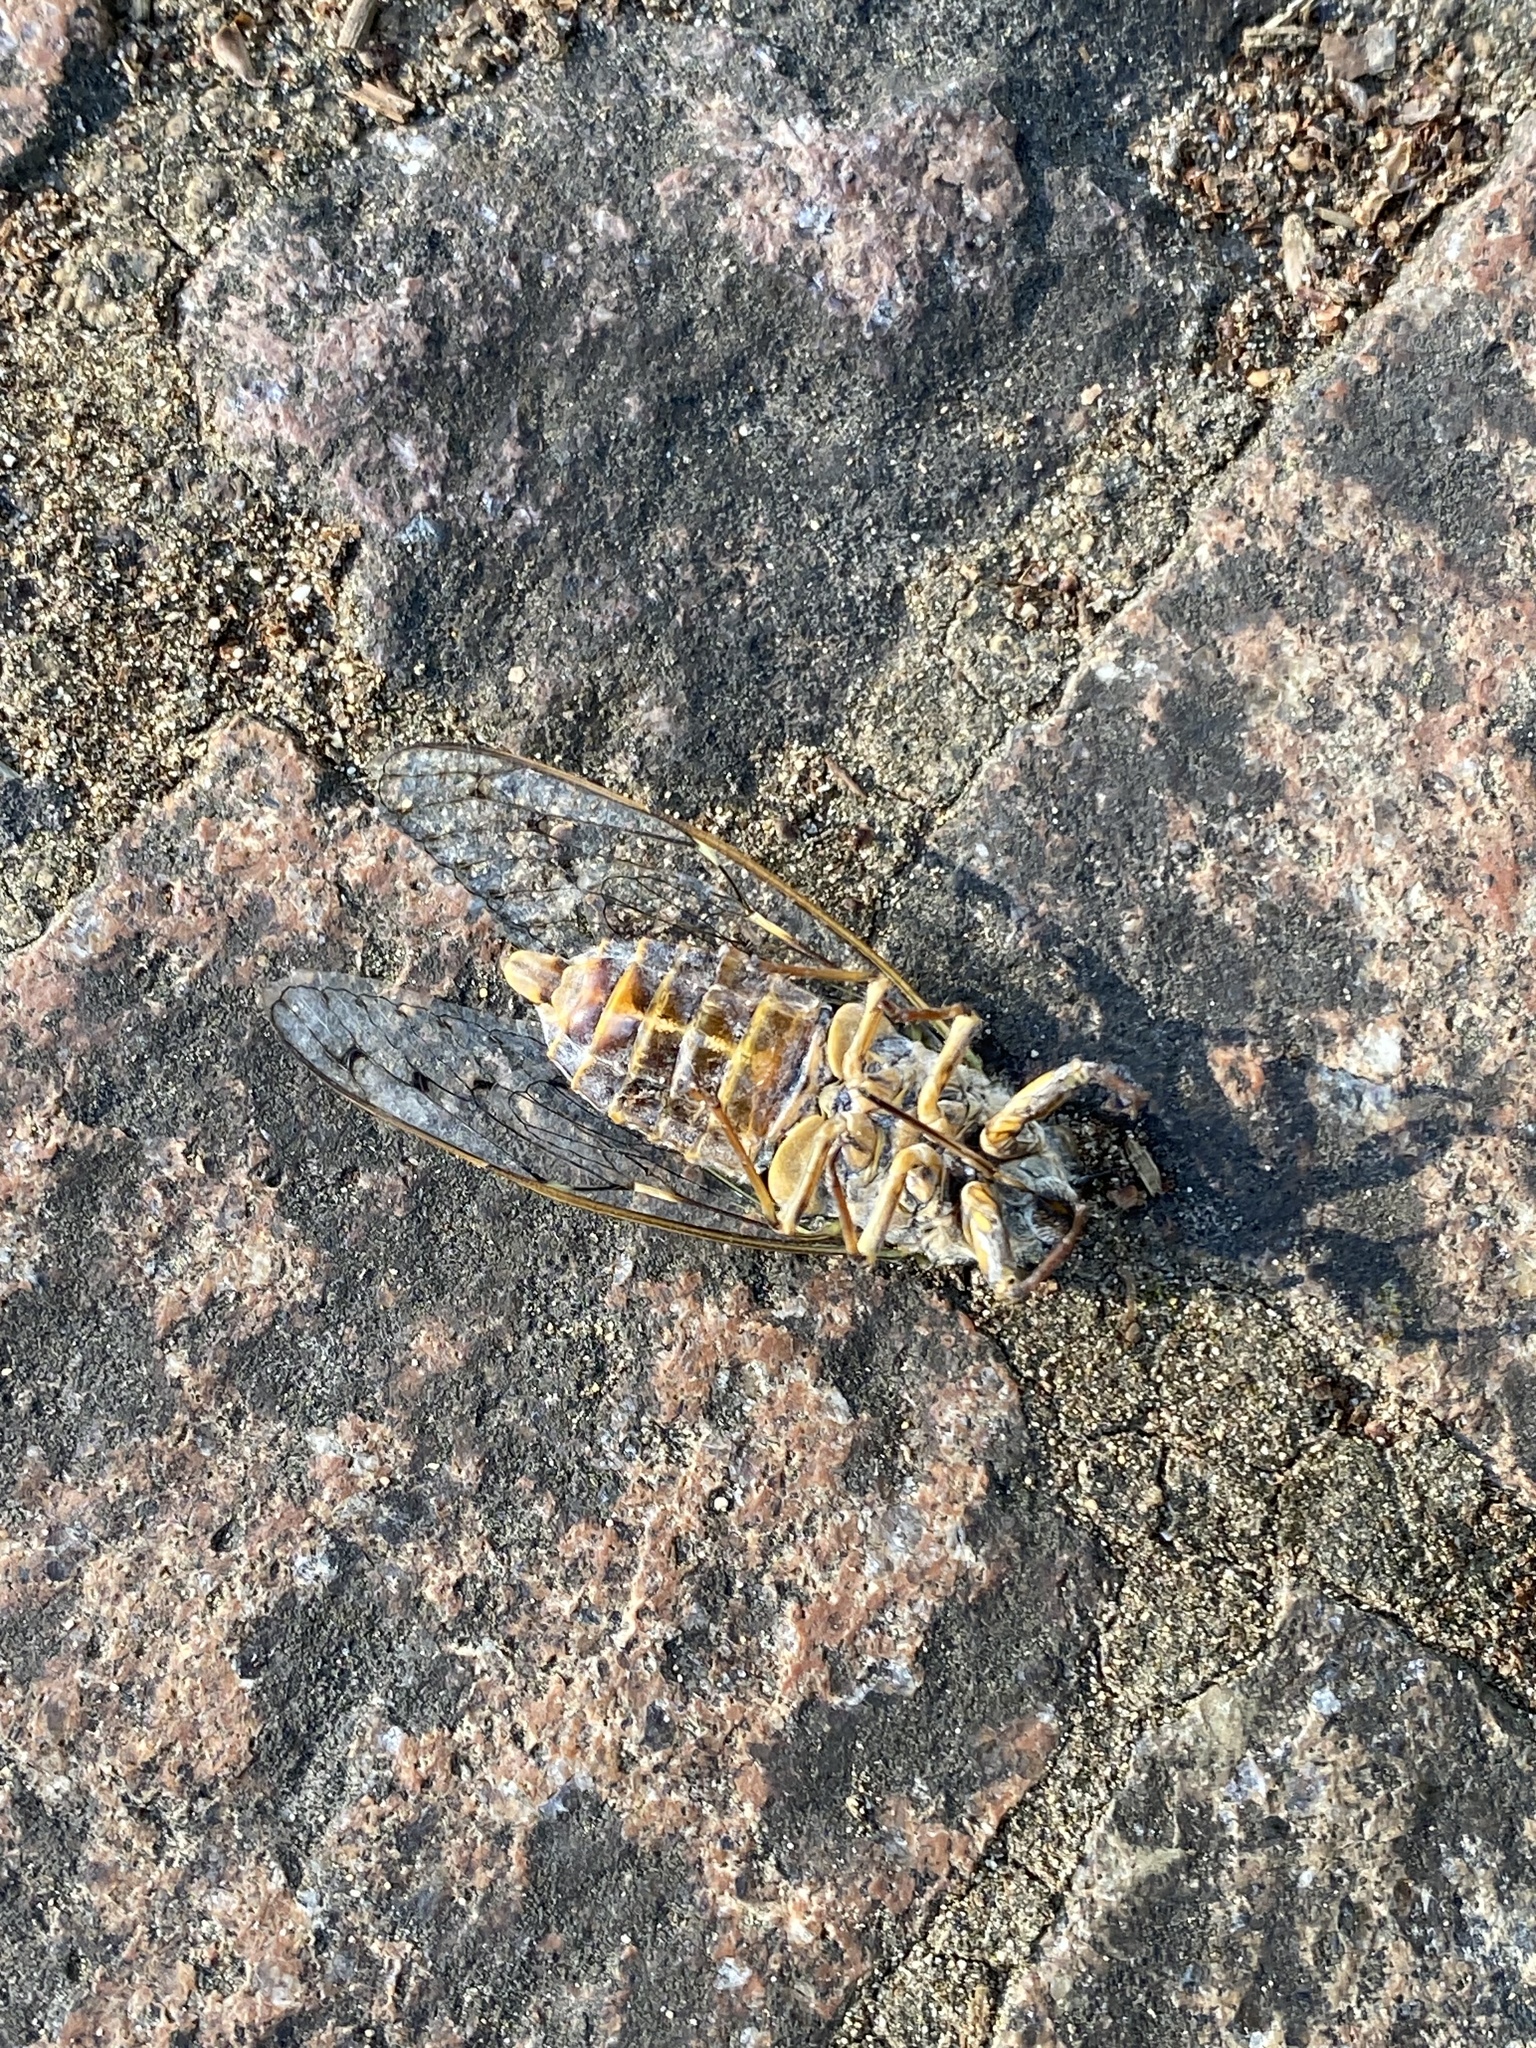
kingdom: Animalia
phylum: Arthropoda
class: Insecta
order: Hemiptera
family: Cicadidae
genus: Cicada
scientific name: Cicada orni
